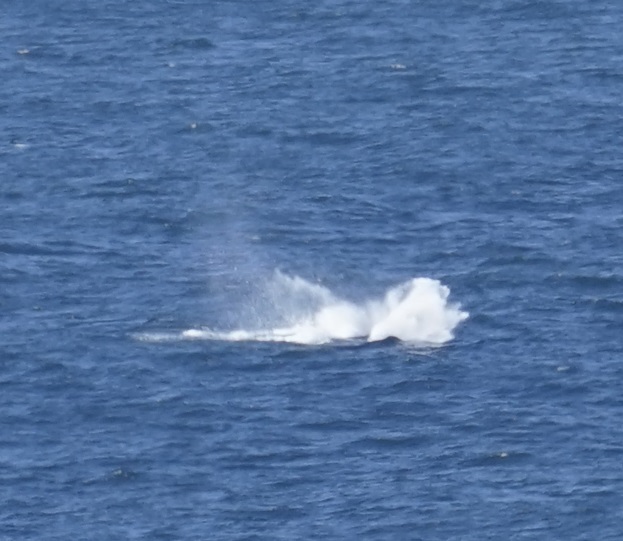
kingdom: Animalia
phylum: Chordata
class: Mammalia
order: Cetacea
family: Balaenopteridae
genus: Megaptera
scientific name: Megaptera novaeangliae
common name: Humpback whale
